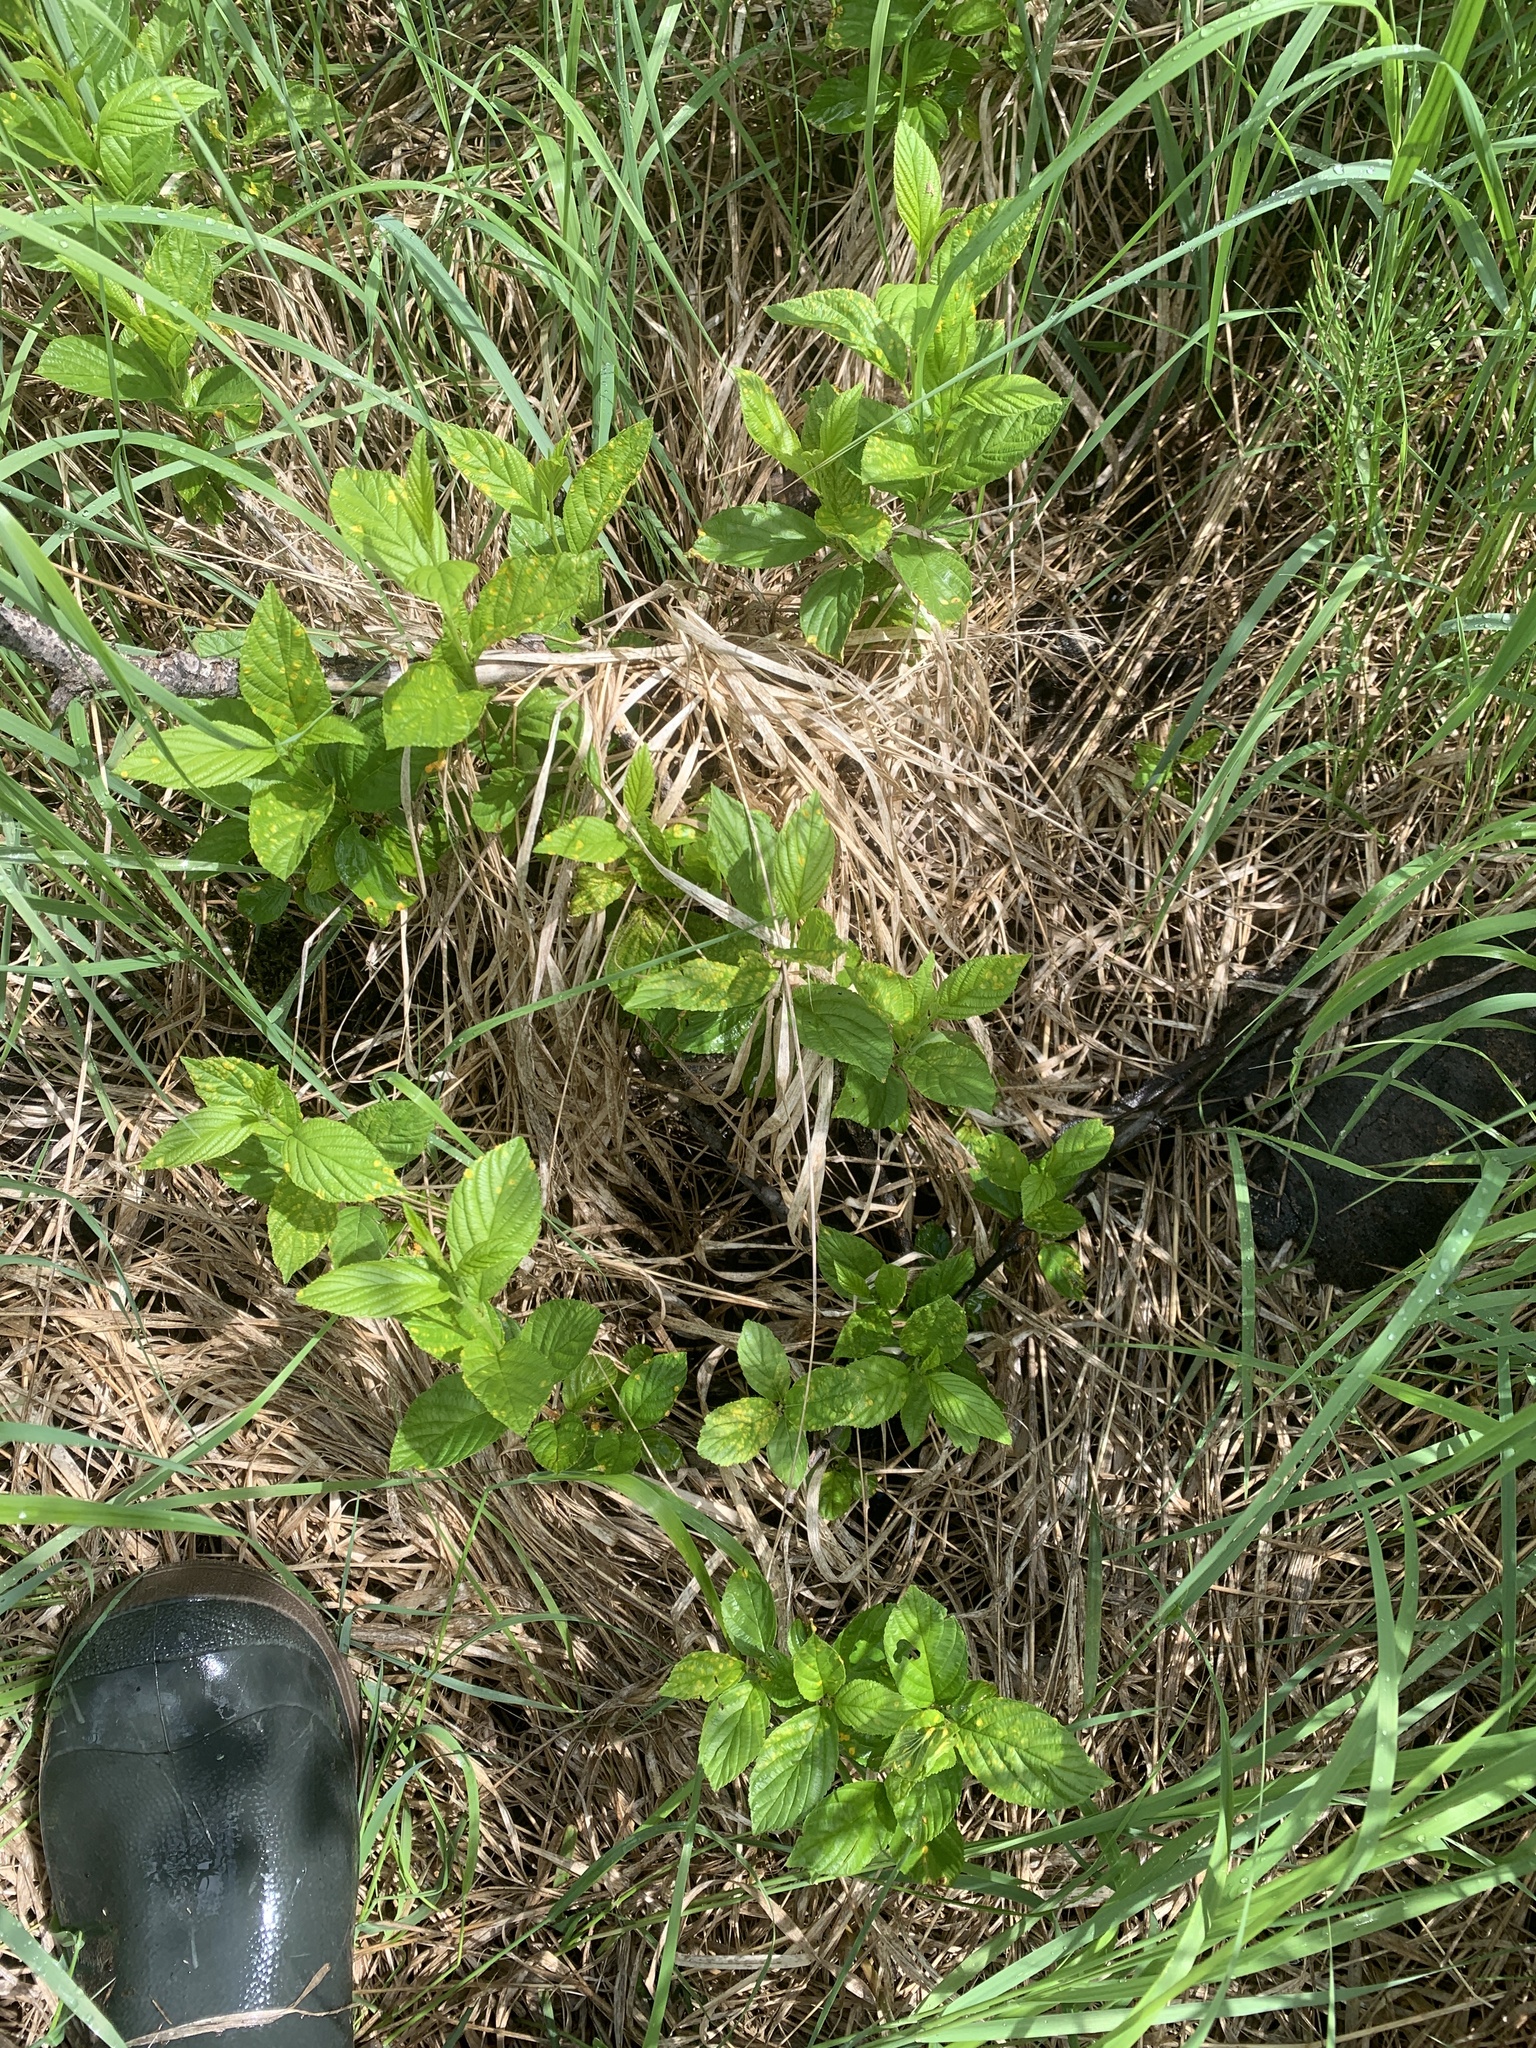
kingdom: Plantae
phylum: Tracheophyta
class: Magnoliopsida
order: Rosales
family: Rhamnaceae
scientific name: Rhamnaceae
